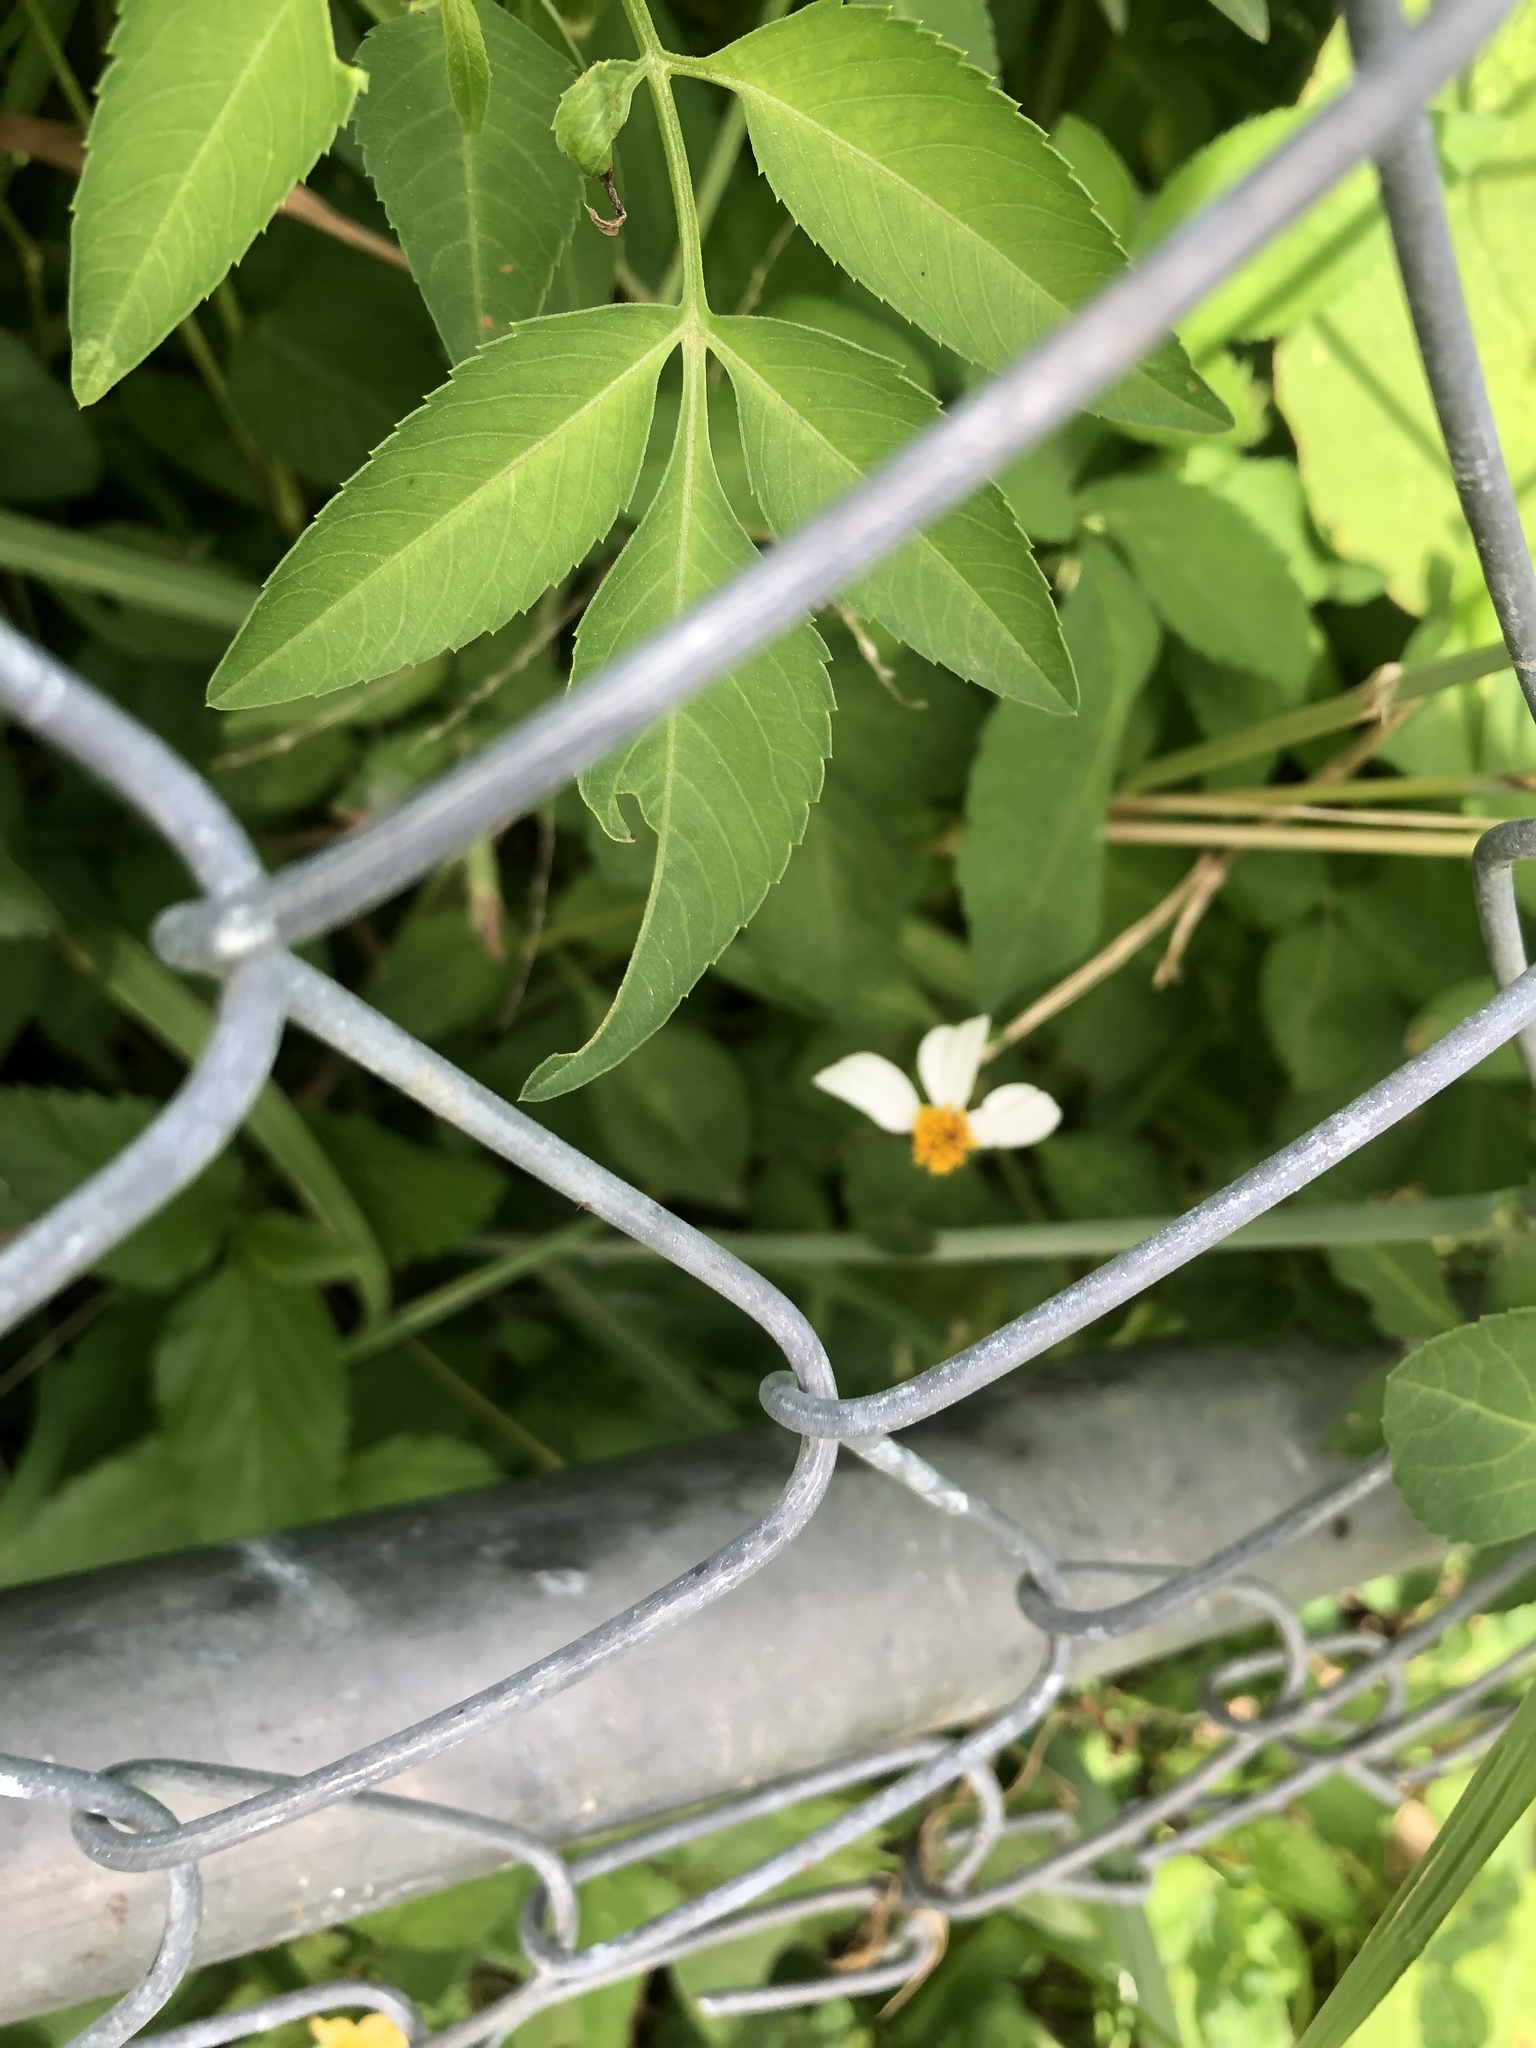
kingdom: Plantae
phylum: Tracheophyta
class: Magnoliopsida
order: Asterales
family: Asteraceae
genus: Bidens
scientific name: Bidens alba
